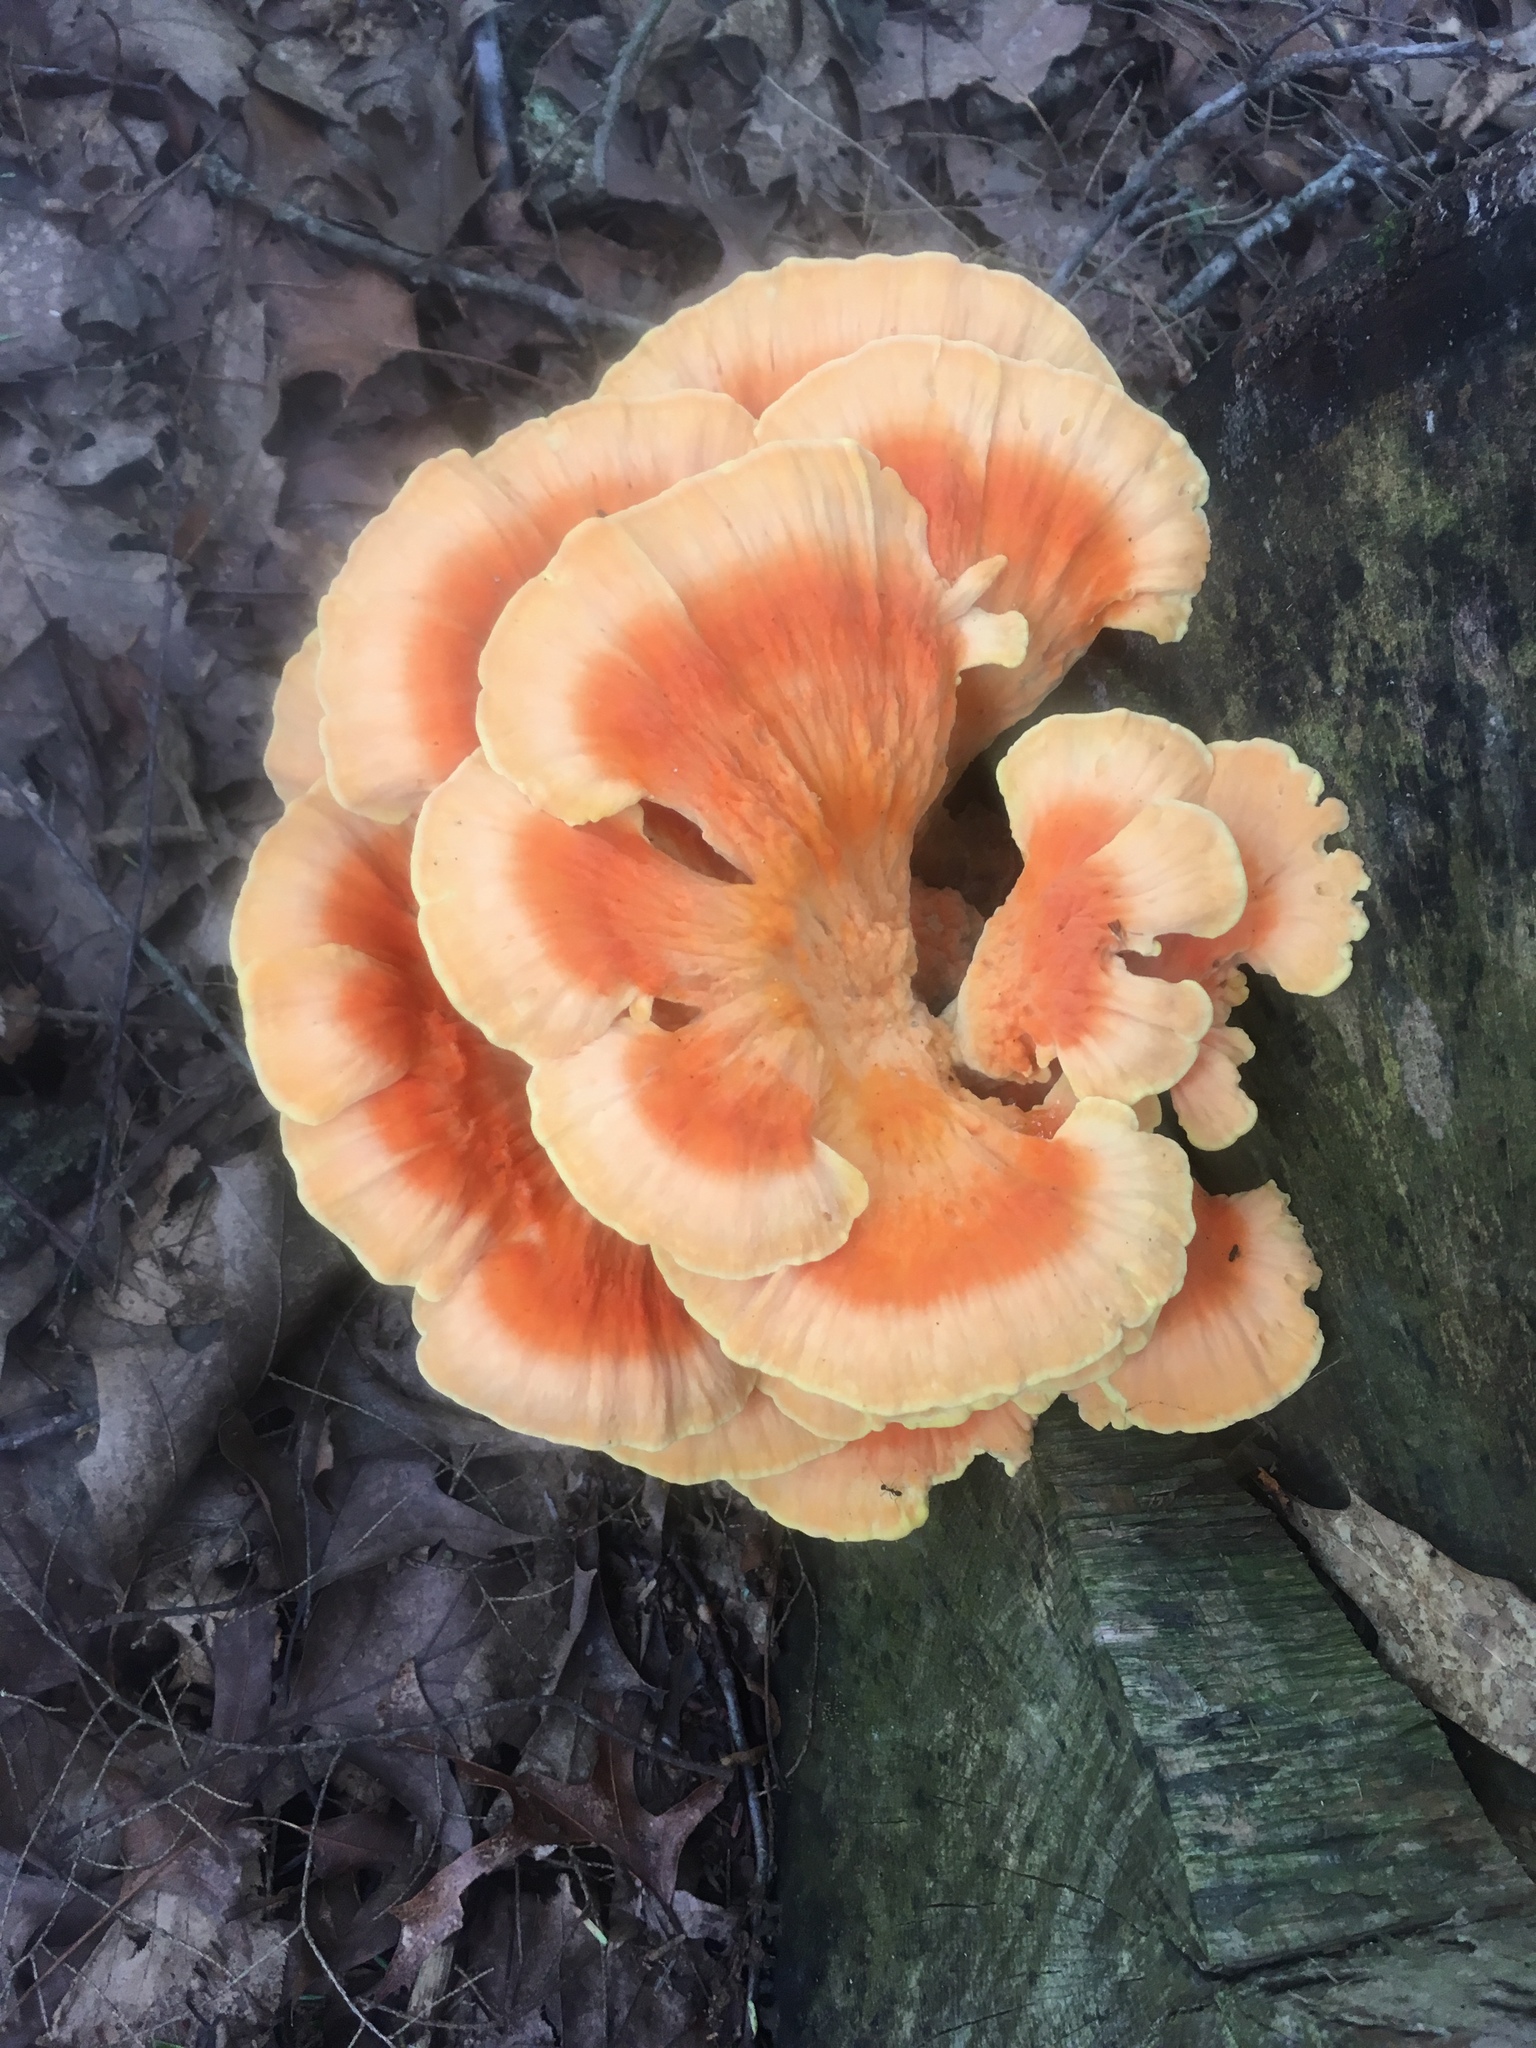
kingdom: Fungi
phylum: Basidiomycota
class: Agaricomycetes
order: Polyporales
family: Laetiporaceae
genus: Laetiporus
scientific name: Laetiporus sulphureus
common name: Chicken of the woods
